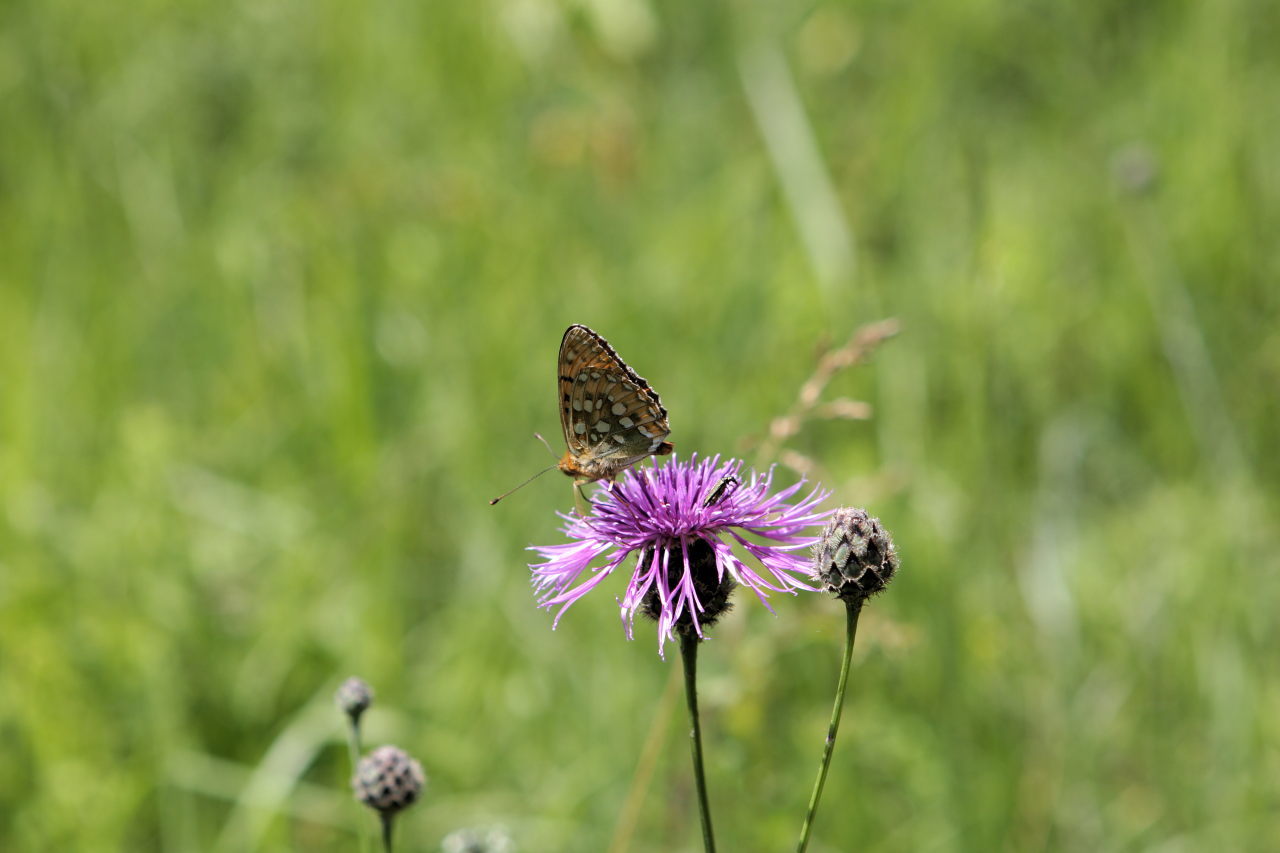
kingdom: Animalia
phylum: Arthropoda
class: Insecta
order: Lepidoptera
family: Nymphalidae
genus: Speyeria
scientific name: Speyeria aglaja
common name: Dark green fritillary
